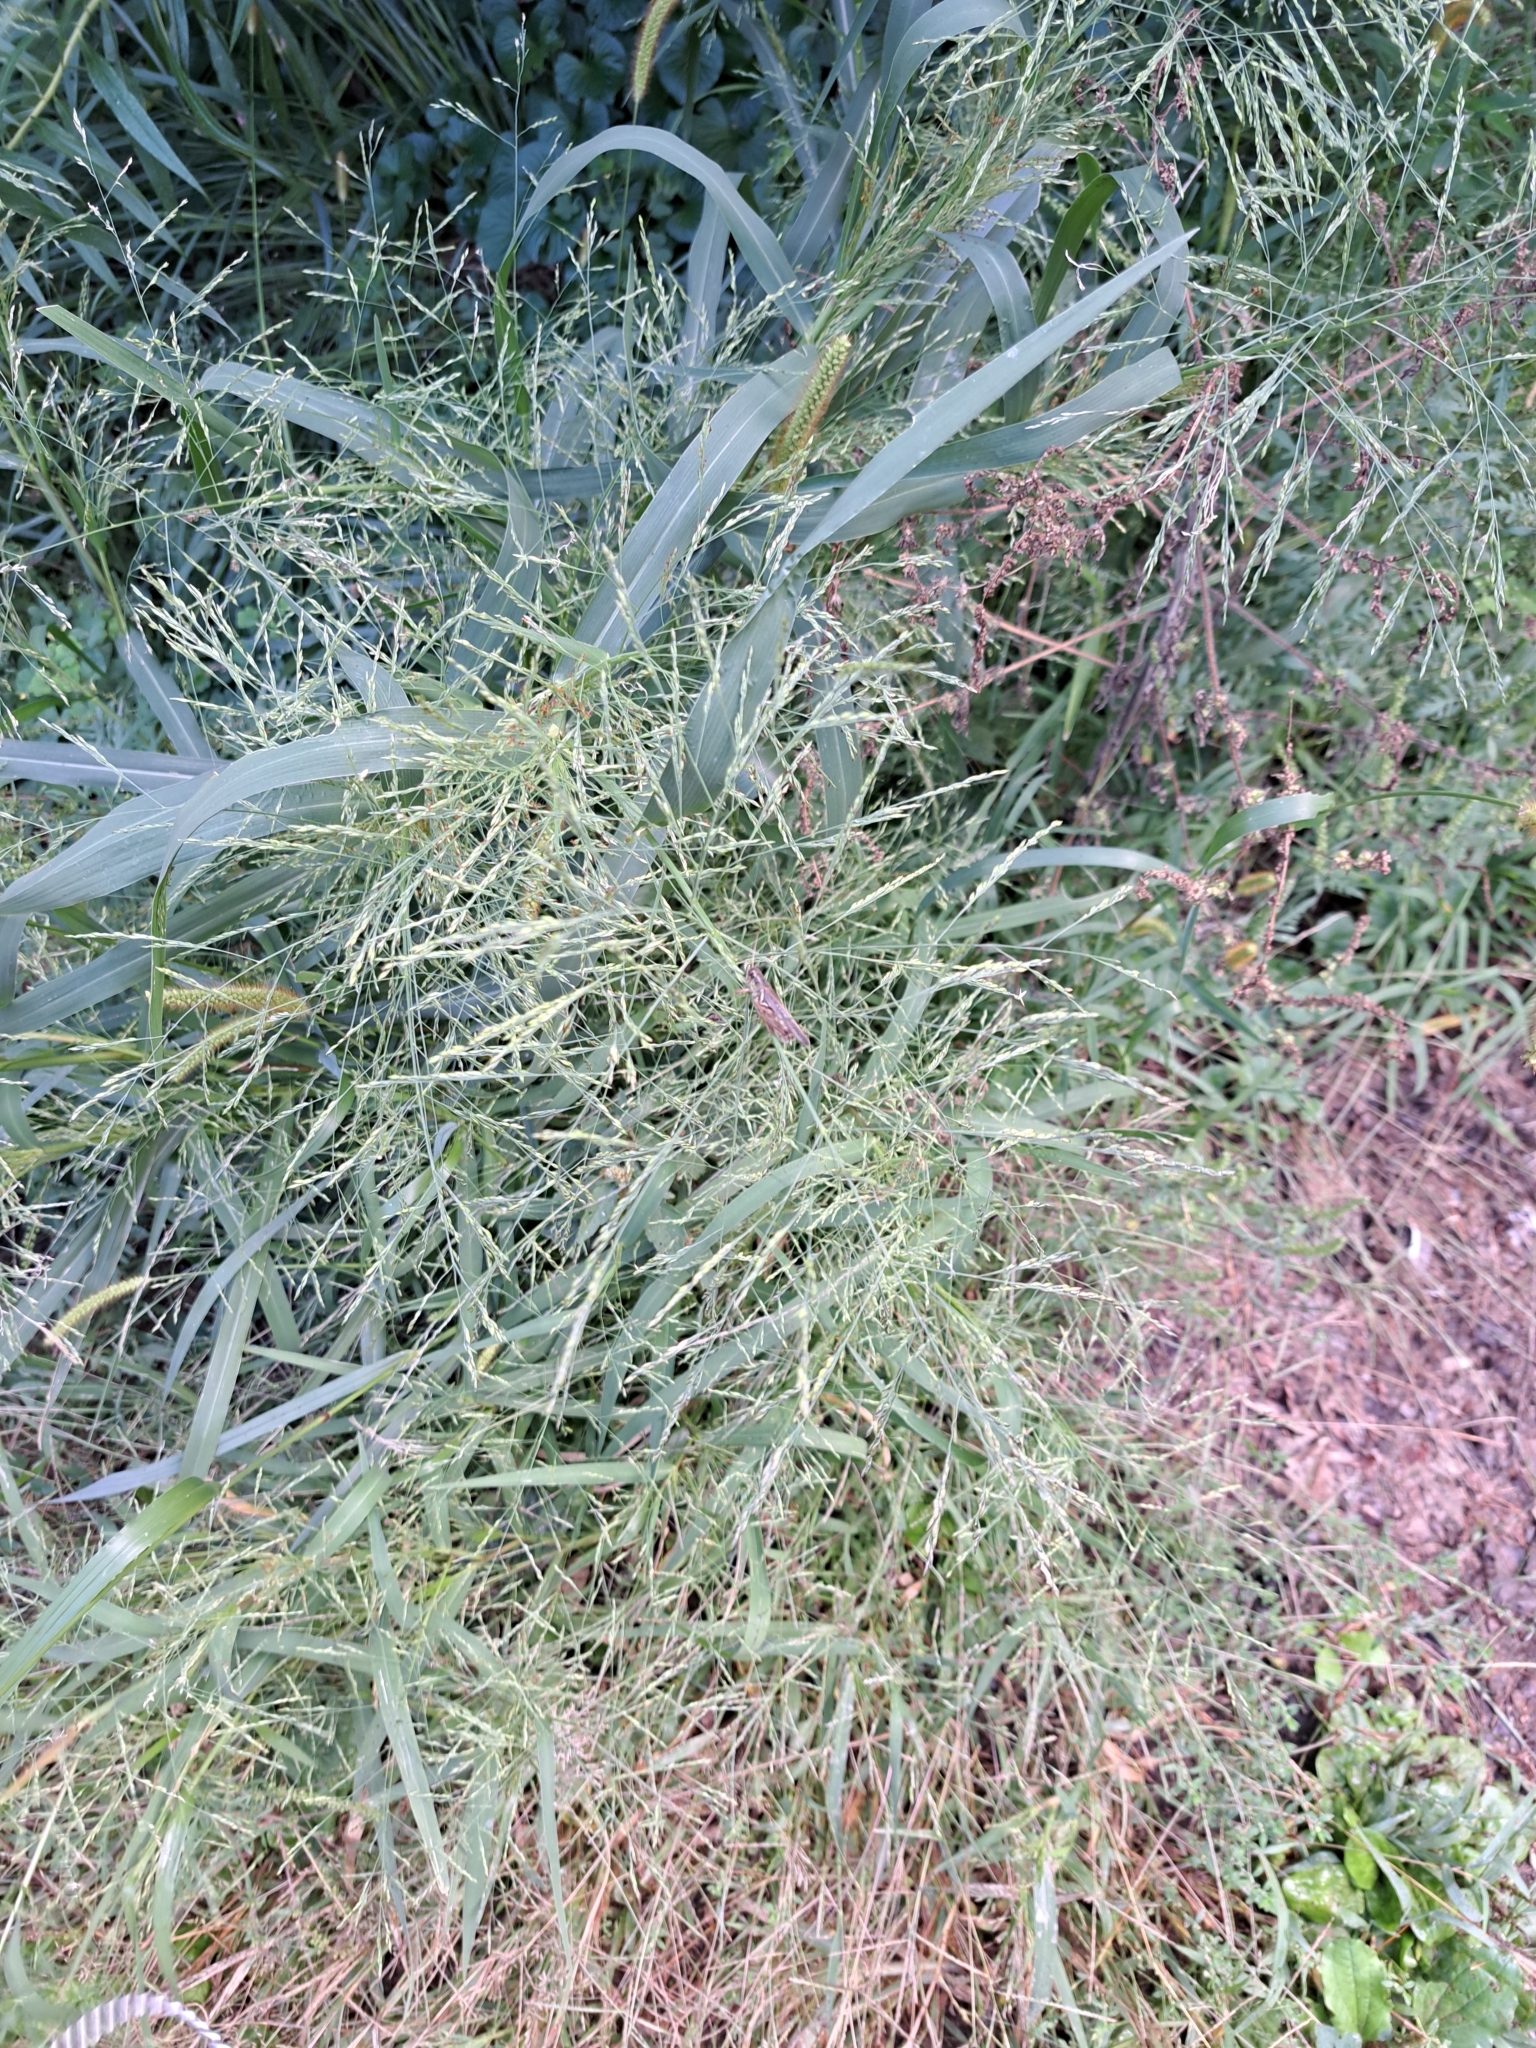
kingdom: Plantae
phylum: Tracheophyta
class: Liliopsida
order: Poales
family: Poaceae
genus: Panicum
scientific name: Panicum dichotomiflorum
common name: Autumn millet
